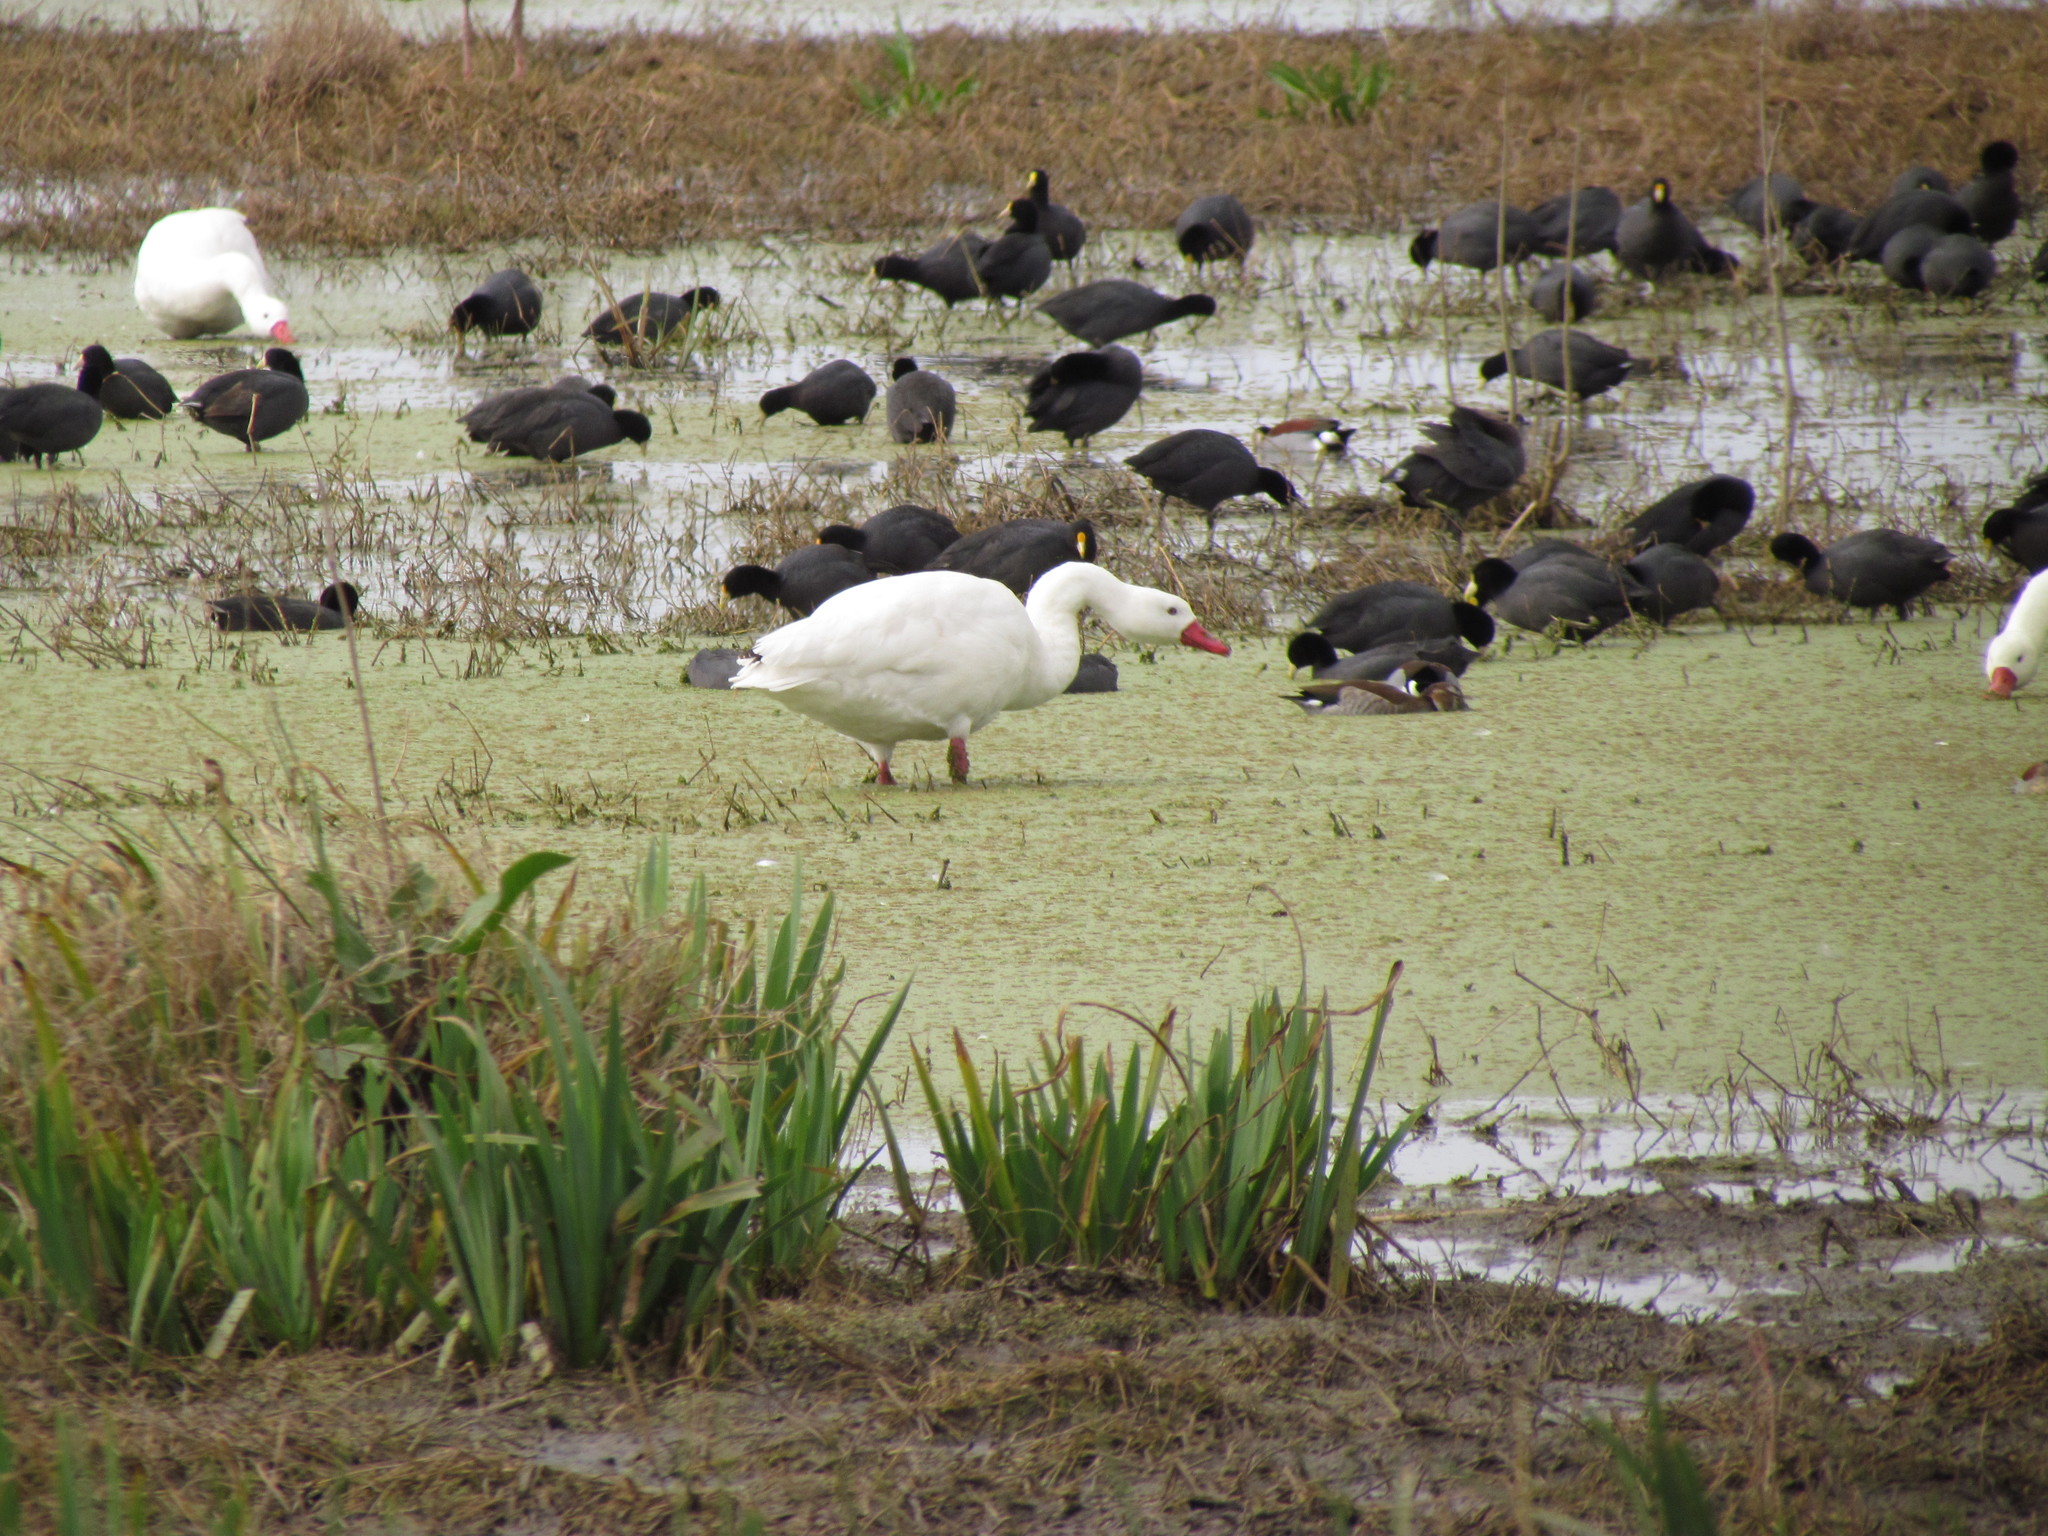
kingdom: Animalia
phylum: Chordata
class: Aves
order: Anseriformes
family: Anatidae
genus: Coscoroba
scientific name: Coscoroba coscoroba
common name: Coscoroba swan
